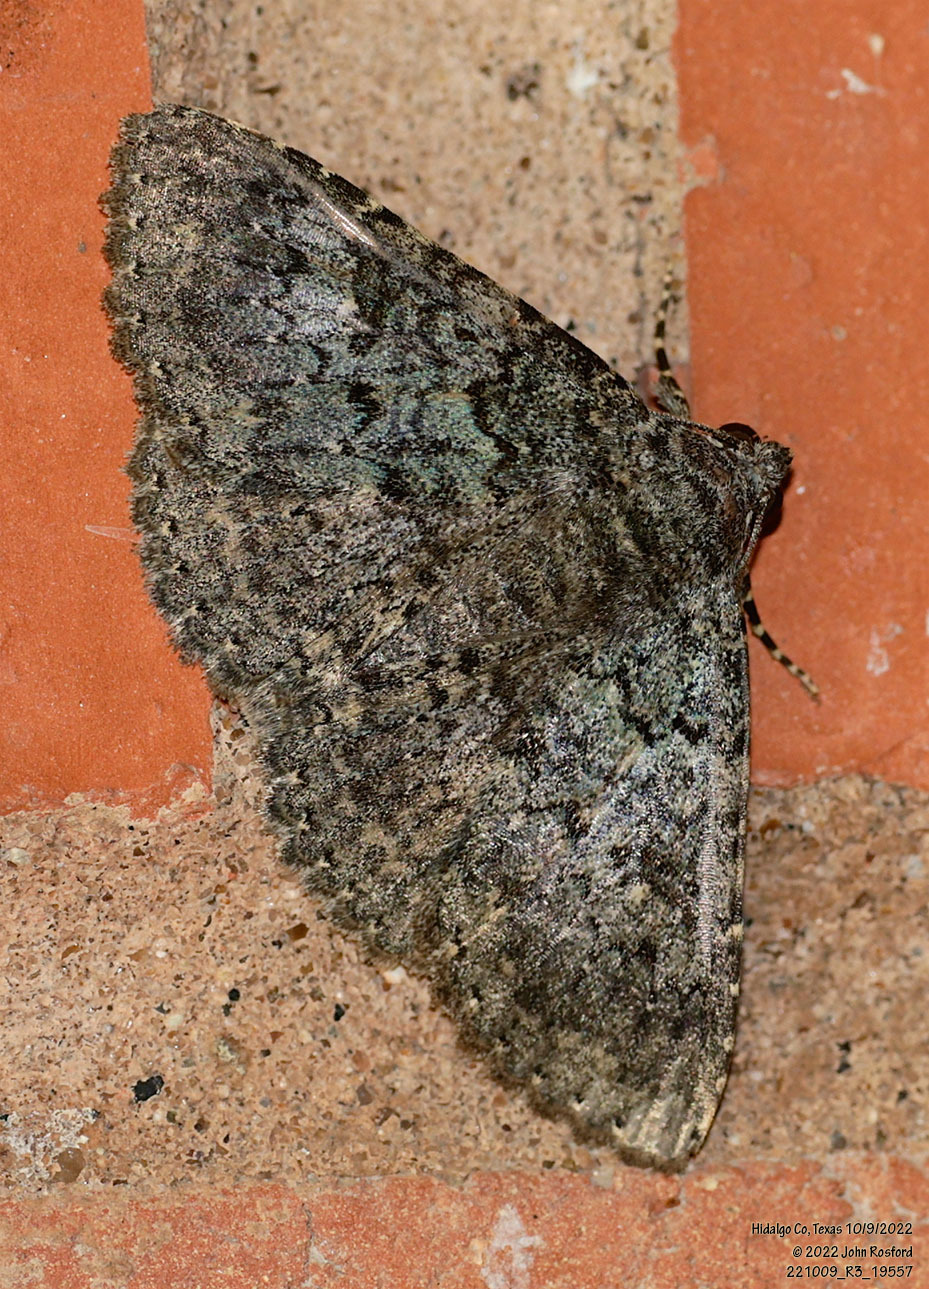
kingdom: Animalia
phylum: Arthropoda
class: Insecta
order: Lepidoptera
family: Erebidae
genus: Matigramma
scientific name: Matigramma obscurior
